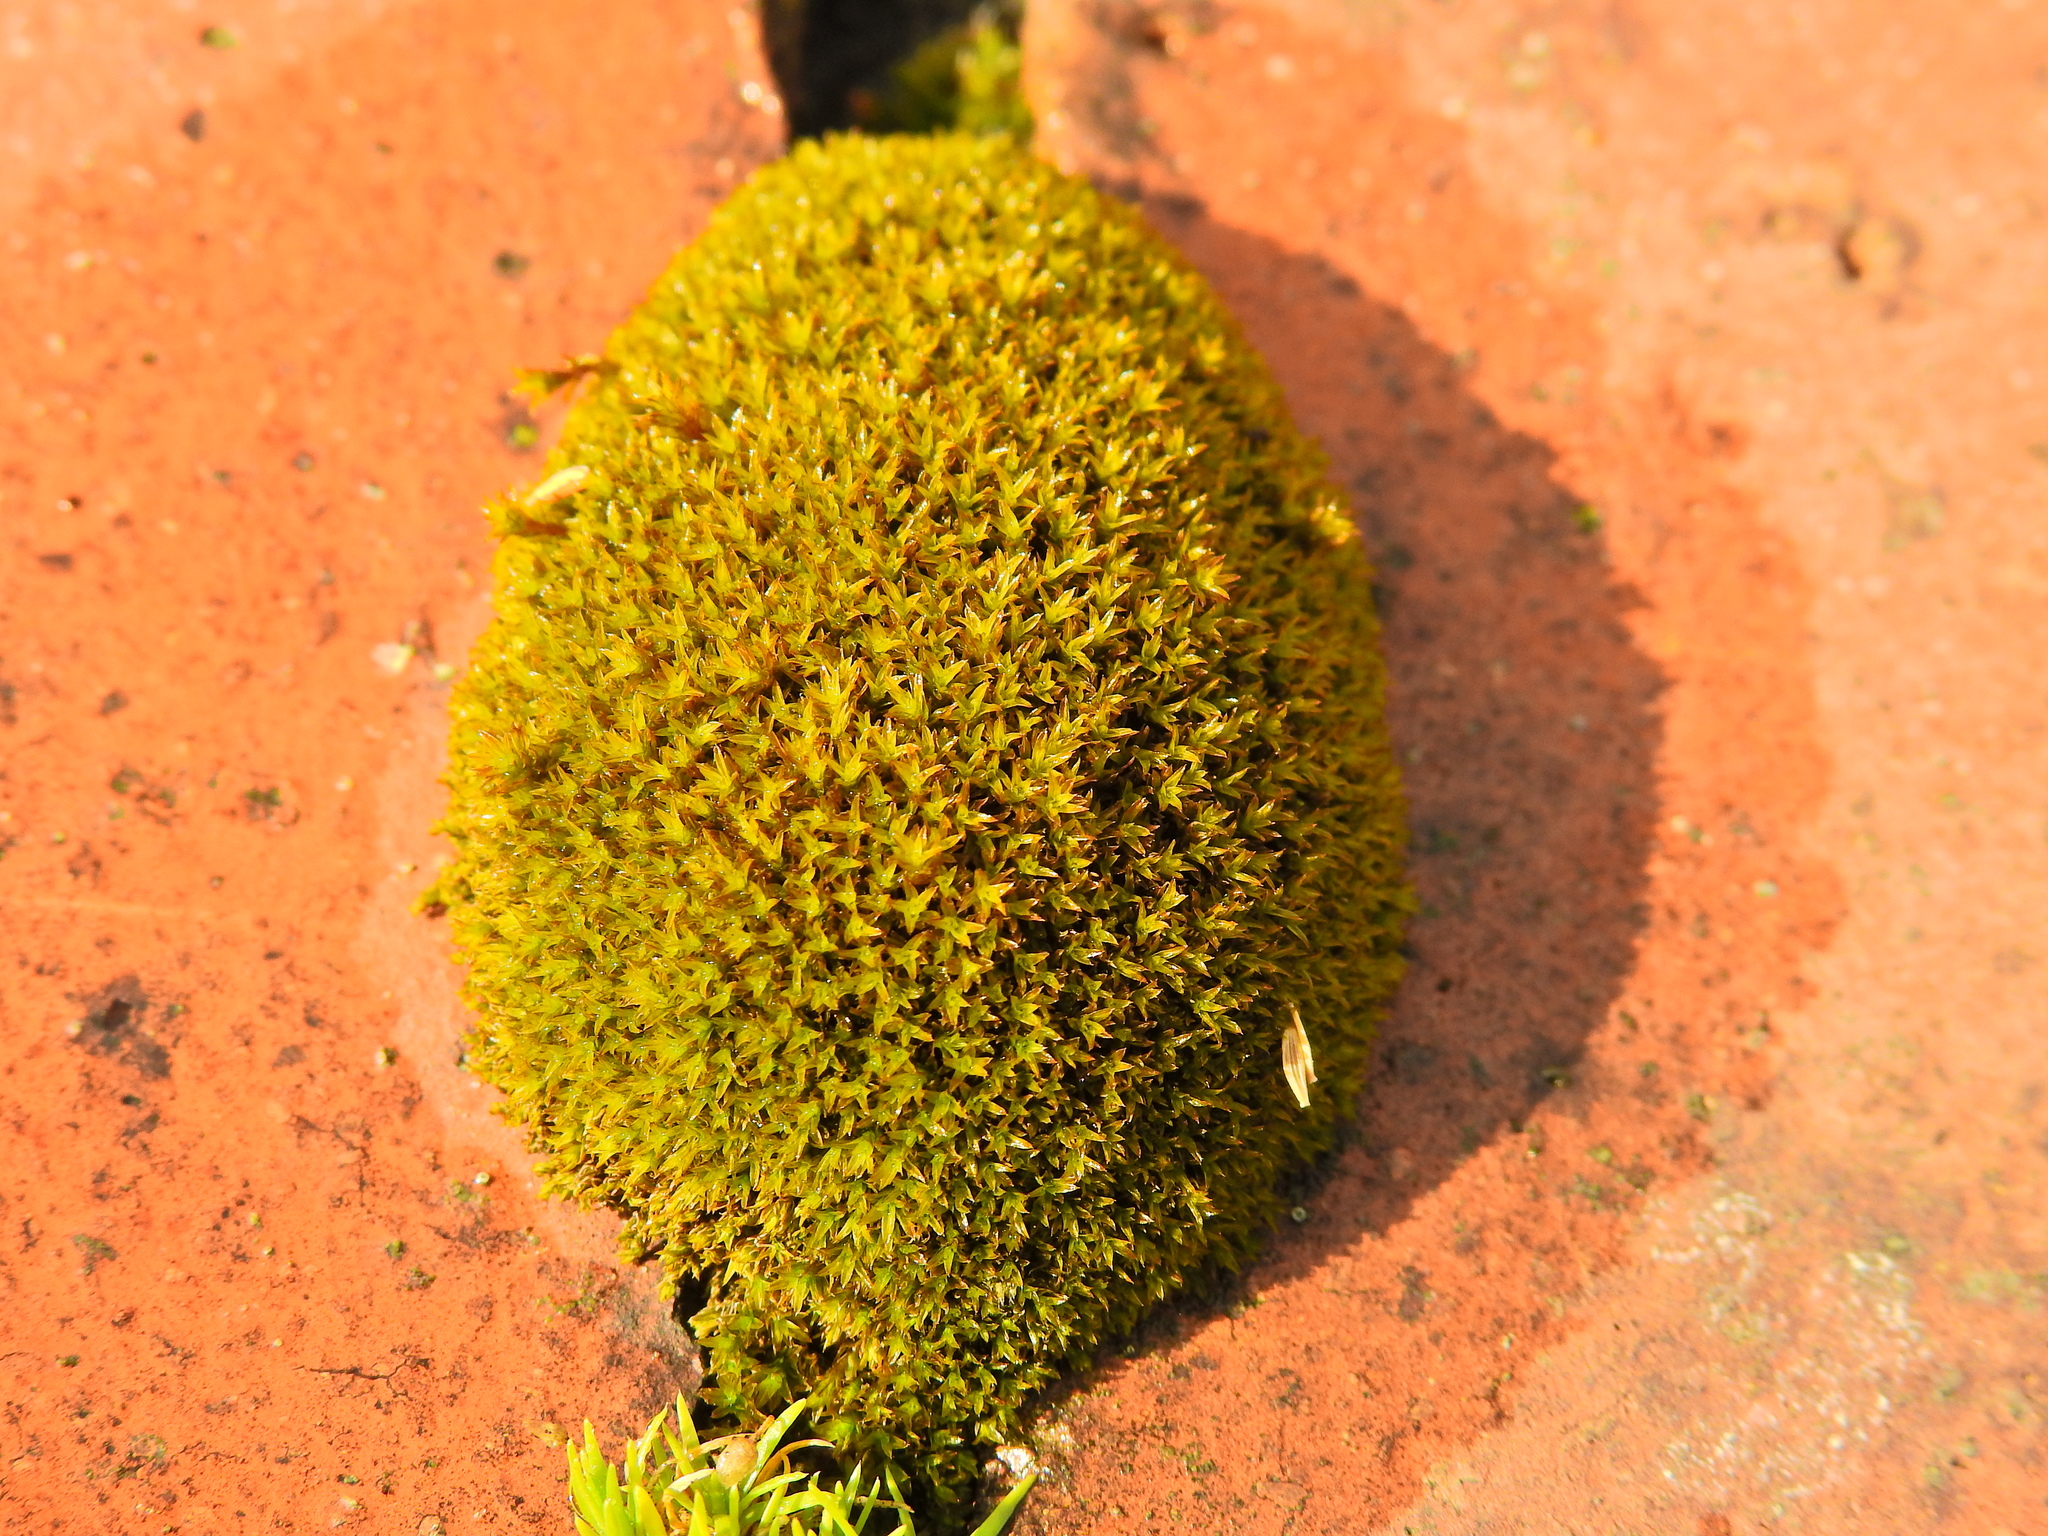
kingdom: Plantae
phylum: Bryophyta
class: Bryopsida
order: Pottiales
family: Pottiaceae
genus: Barbula
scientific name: Barbula unguiculata
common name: Prickly beard moss
